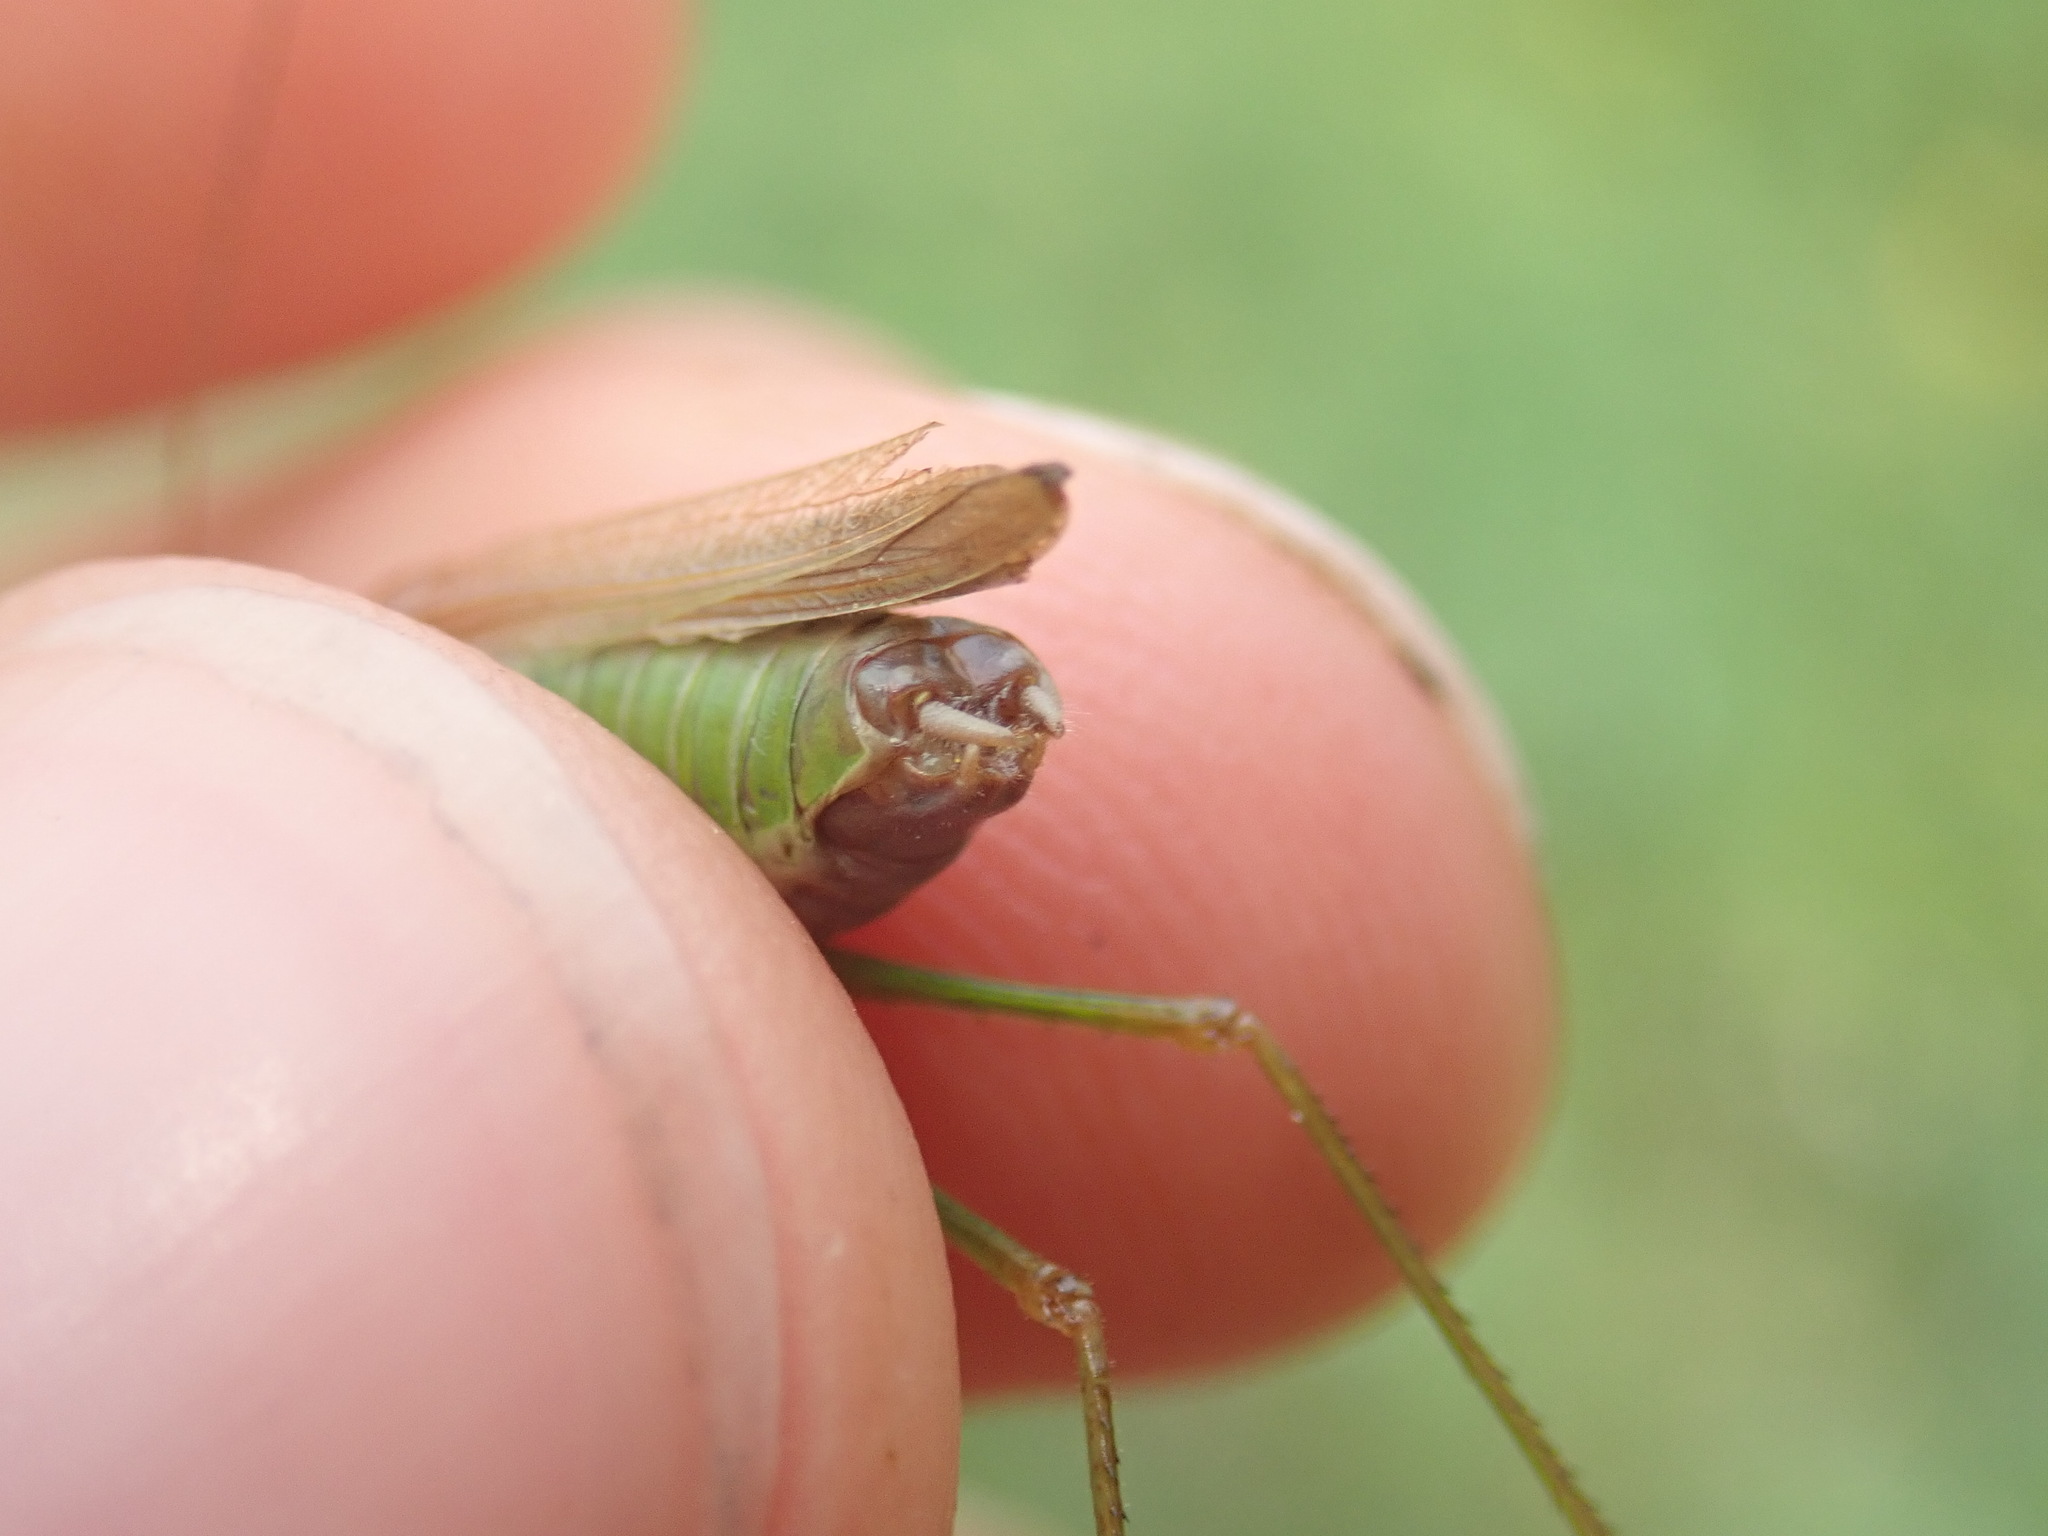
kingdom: Animalia
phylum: Arthropoda
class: Insecta
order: Orthoptera
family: Tettigoniidae
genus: Conocephalus
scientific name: Conocephalus fuscus
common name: Long-winged conehead
